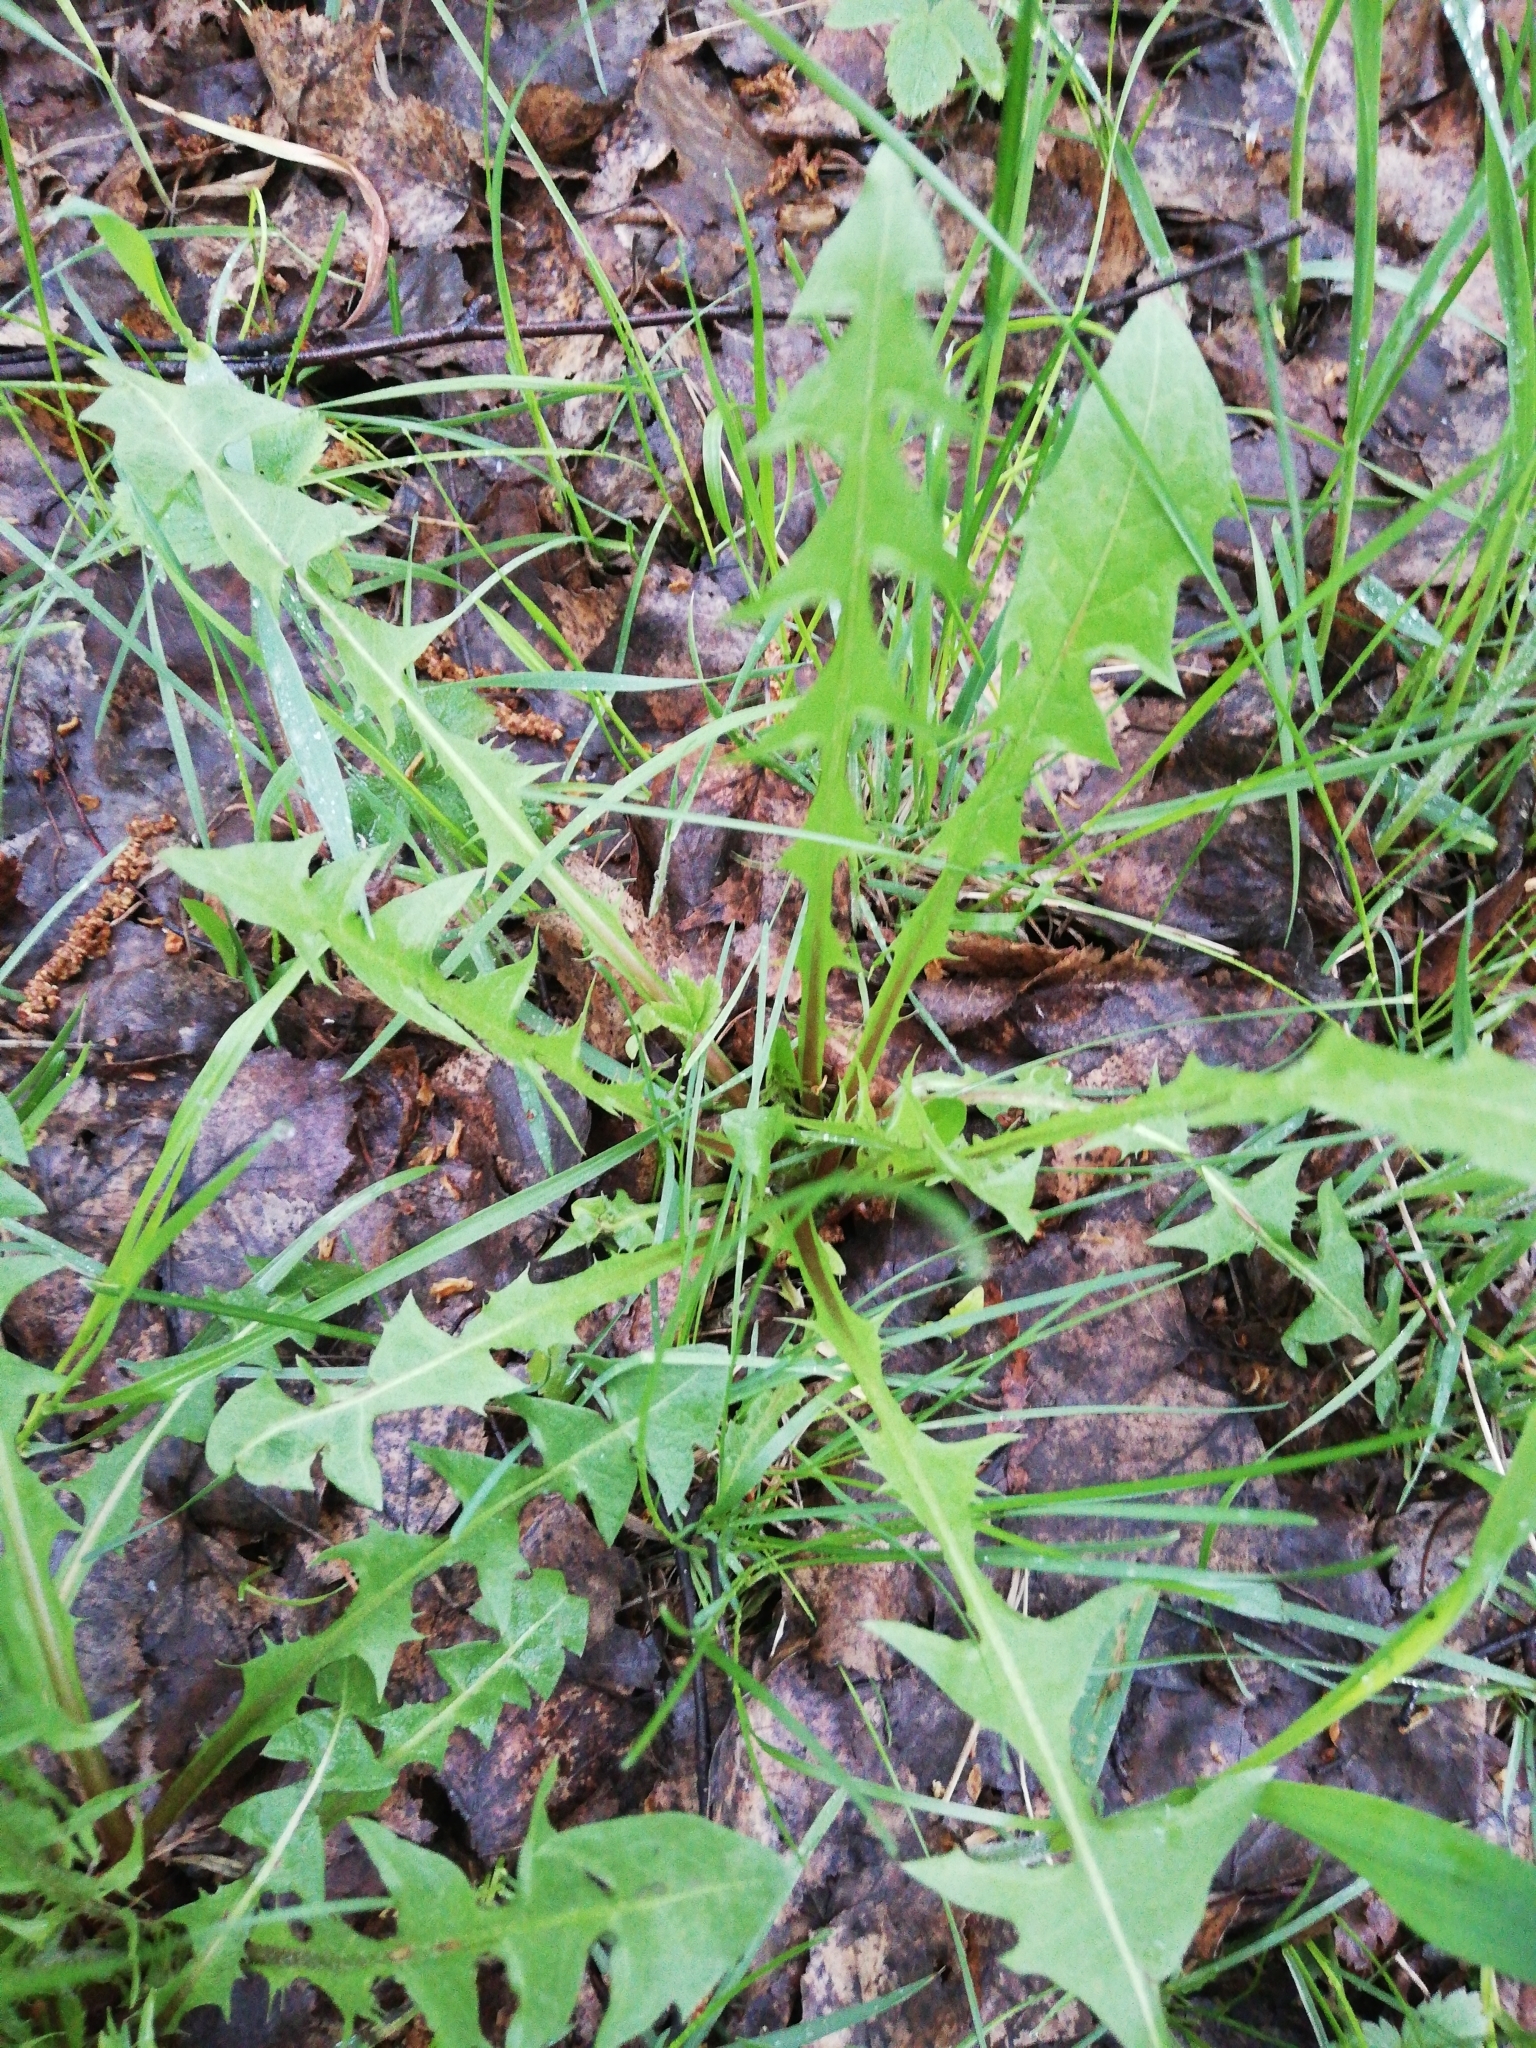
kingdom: Plantae
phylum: Tracheophyta
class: Magnoliopsida
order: Asterales
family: Asteraceae
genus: Taraxacum
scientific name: Taraxacum officinale
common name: Common dandelion
